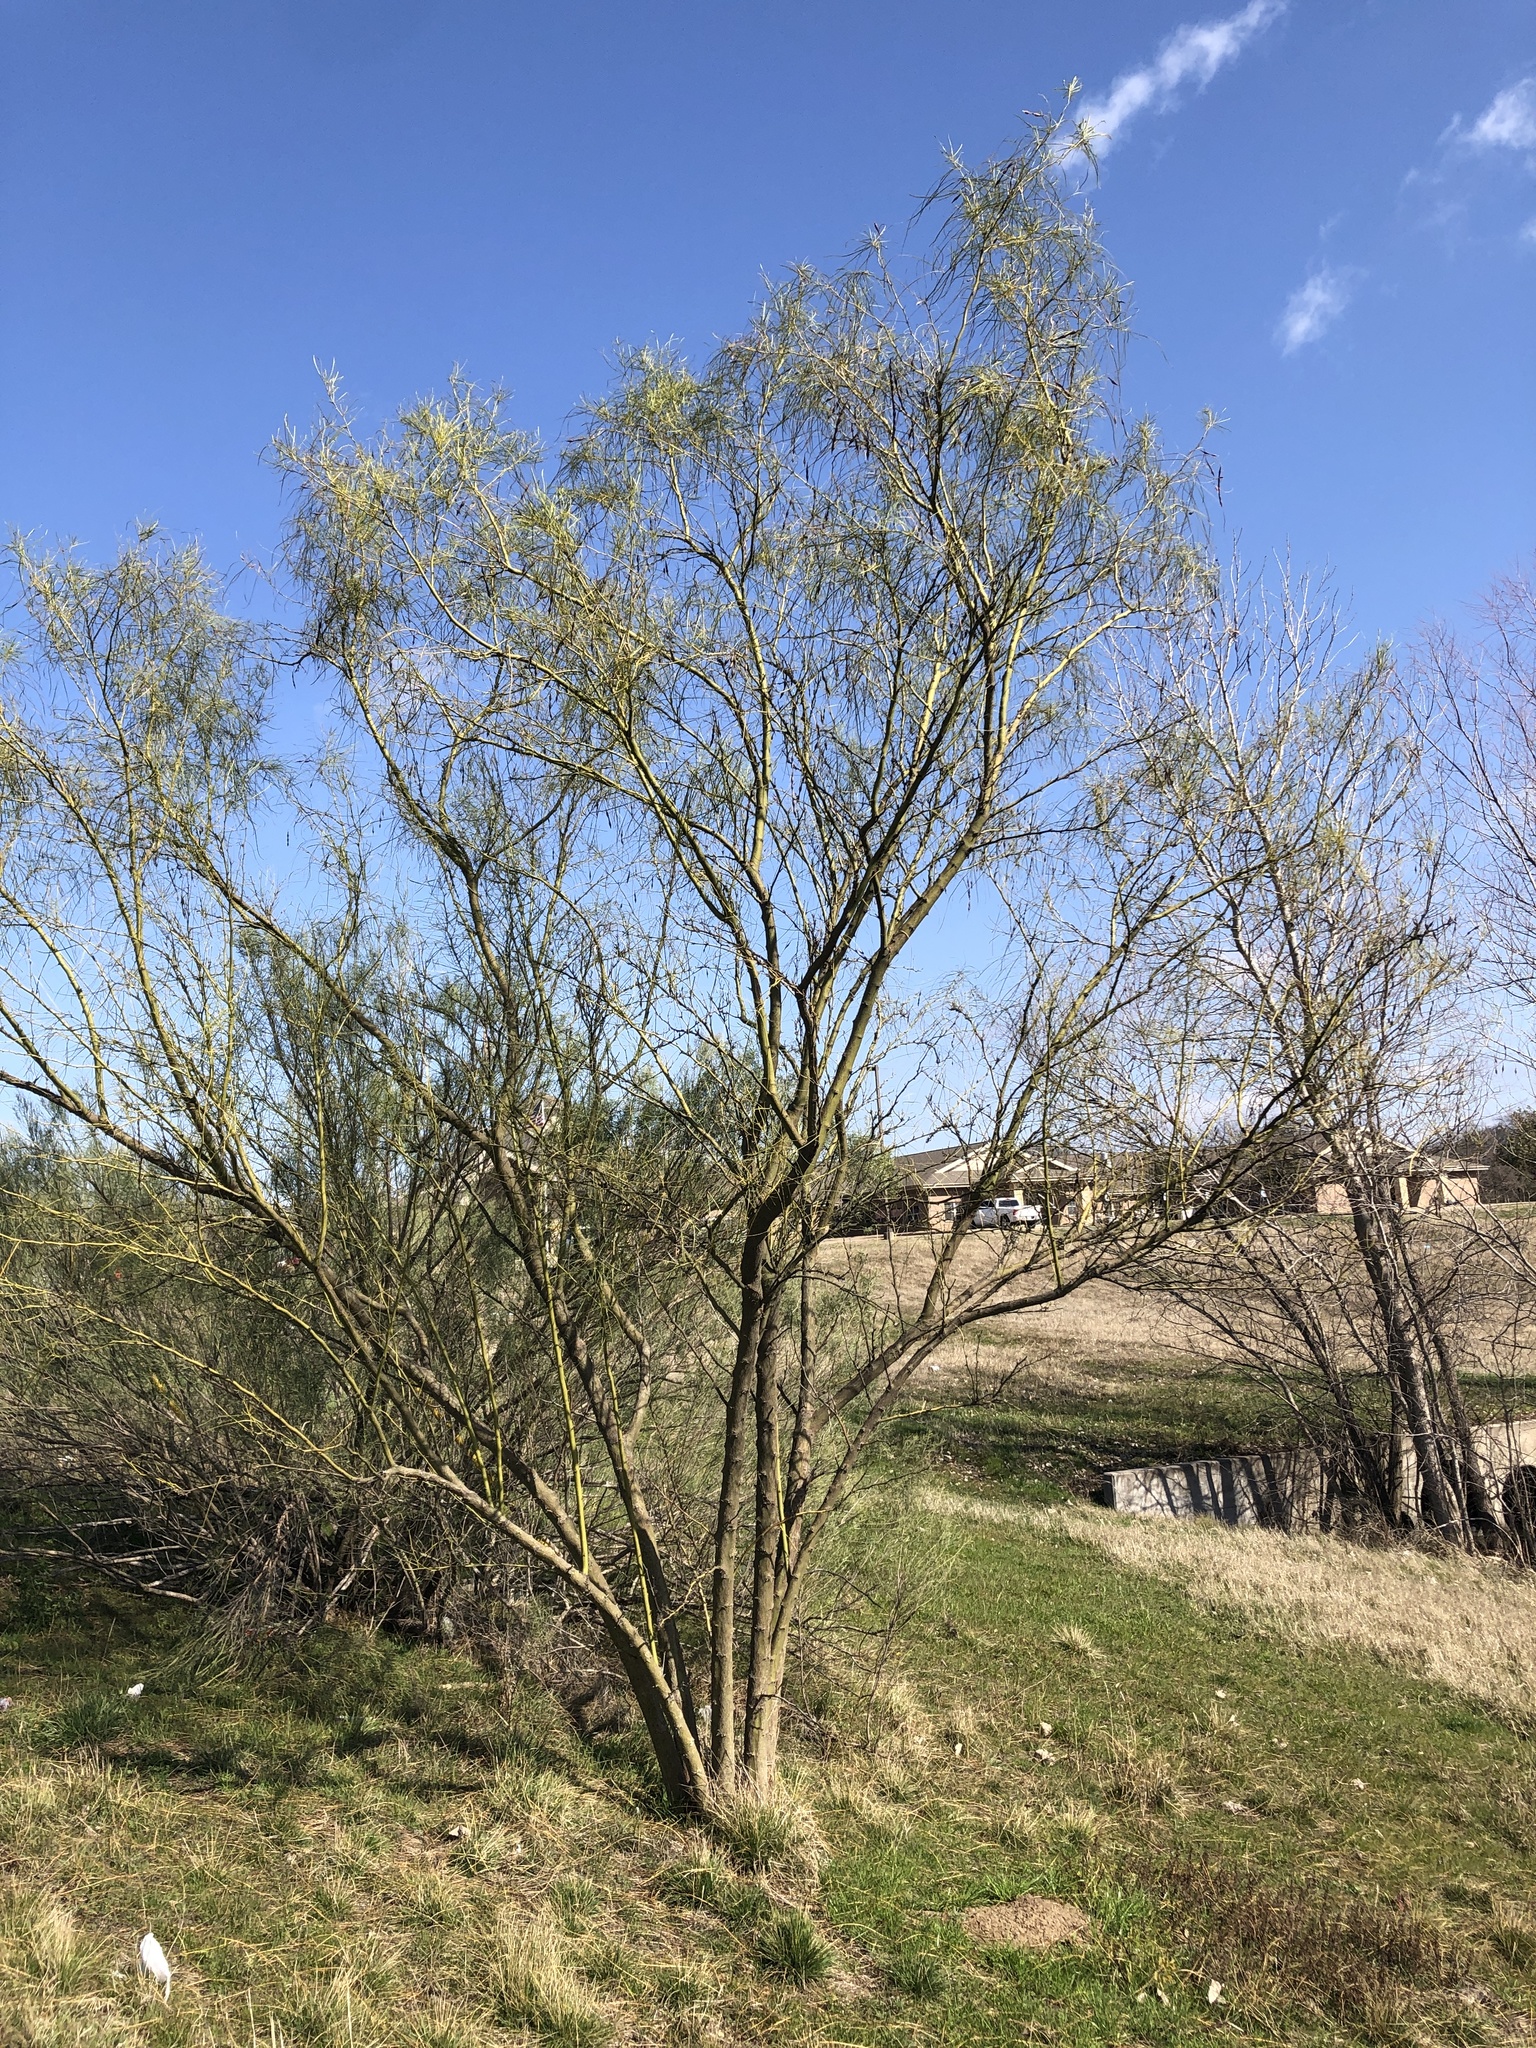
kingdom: Plantae
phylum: Tracheophyta
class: Magnoliopsida
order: Fabales
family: Fabaceae
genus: Parkinsonia
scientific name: Parkinsonia aculeata
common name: Jerusalem thorn
